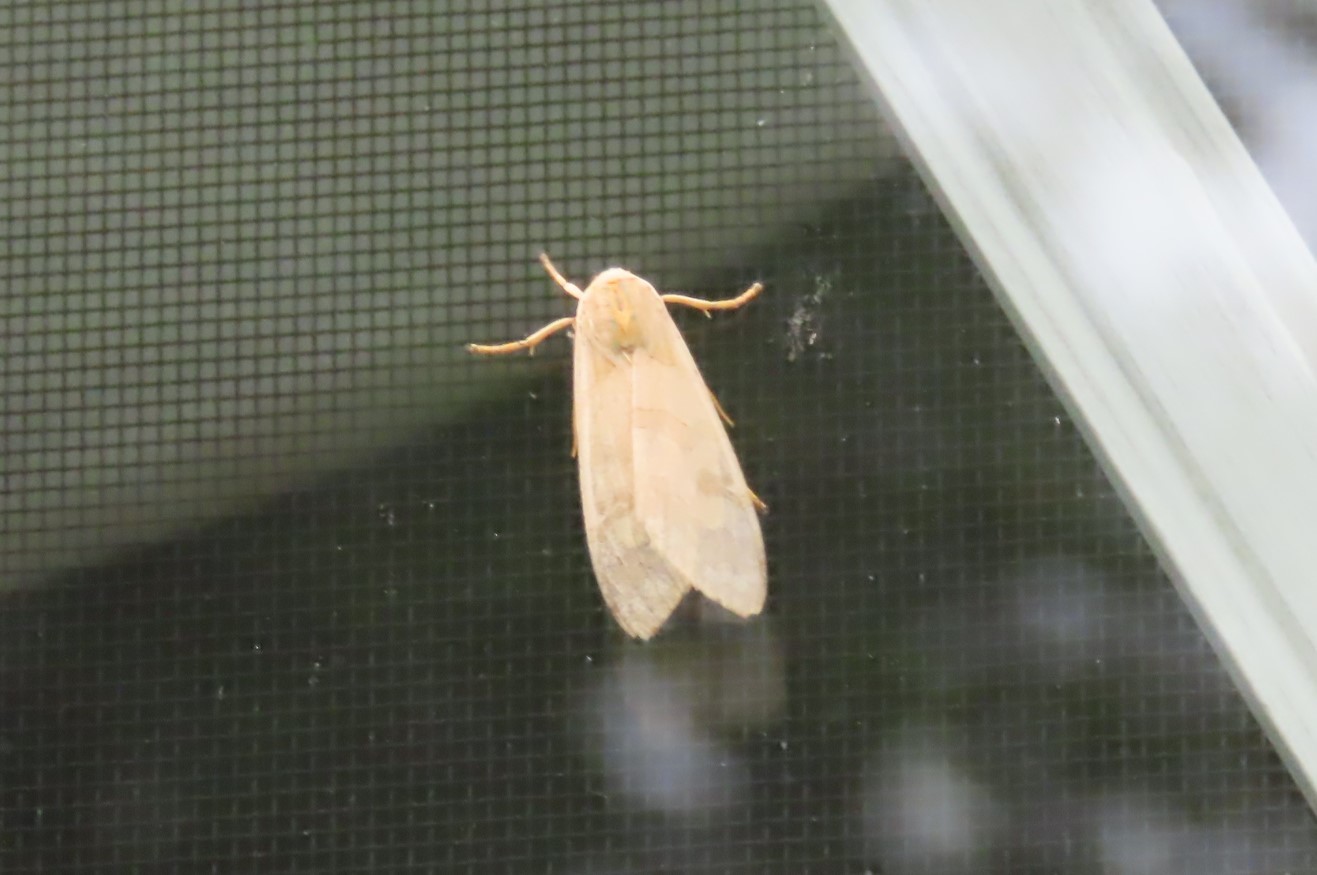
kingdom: Animalia
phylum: Arthropoda
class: Insecta
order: Lepidoptera
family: Erebidae
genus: Halysidota
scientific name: Halysidota
